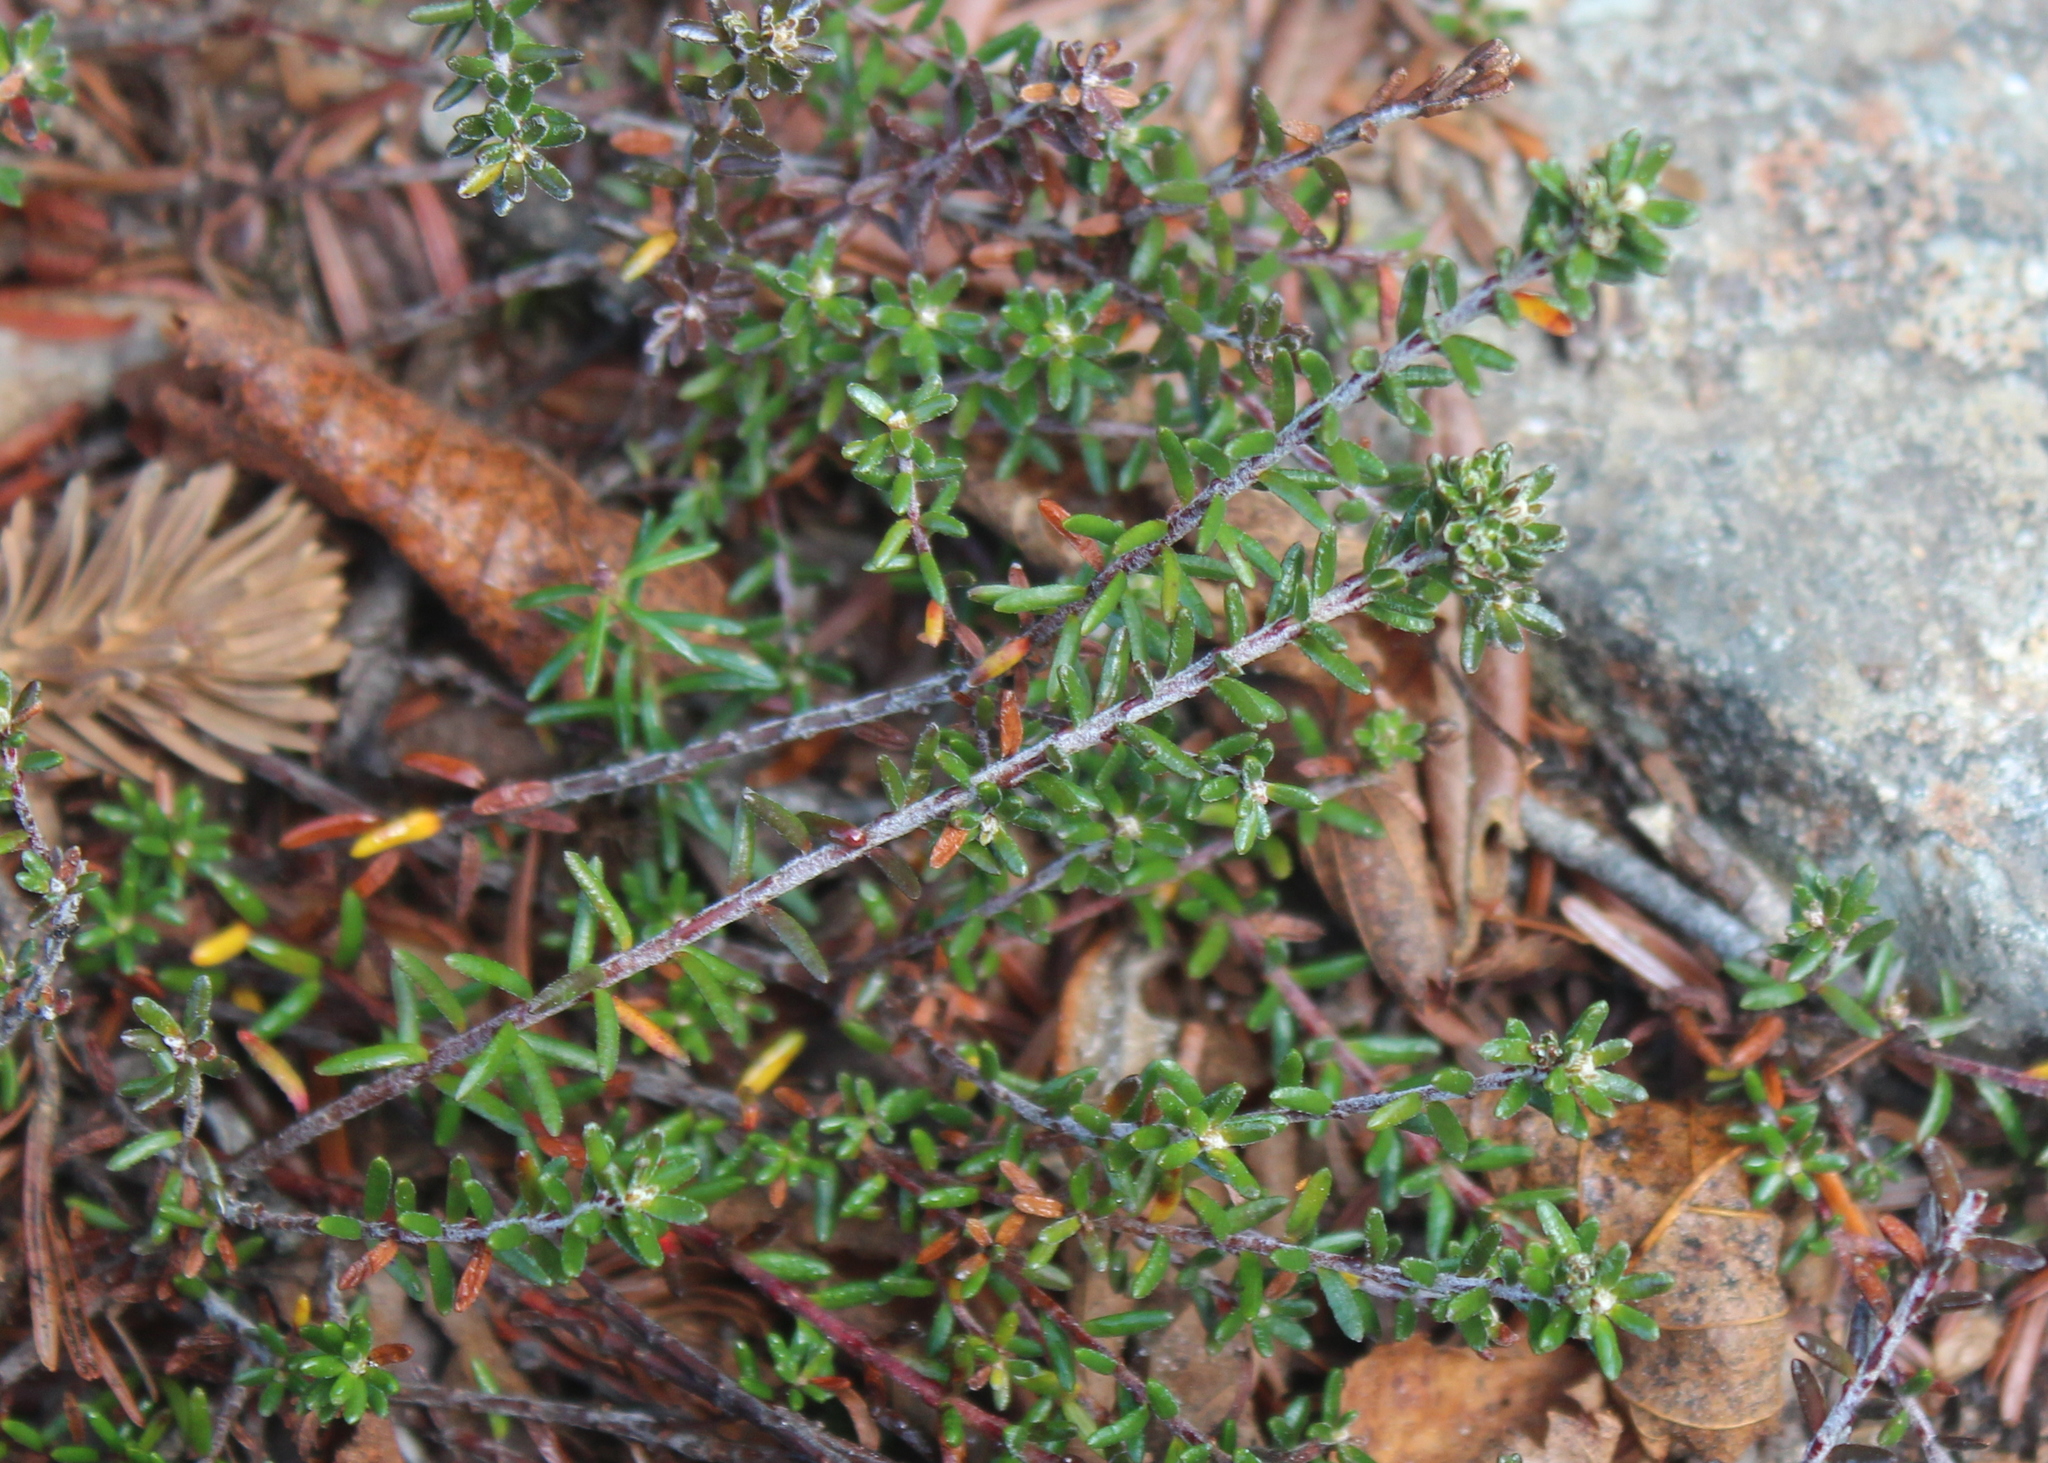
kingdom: Plantae
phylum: Tracheophyta
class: Magnoliopsida
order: Ericales
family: Ericaceae
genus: Empetrum
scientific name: Empetrum nigrum
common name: Black crowberry
